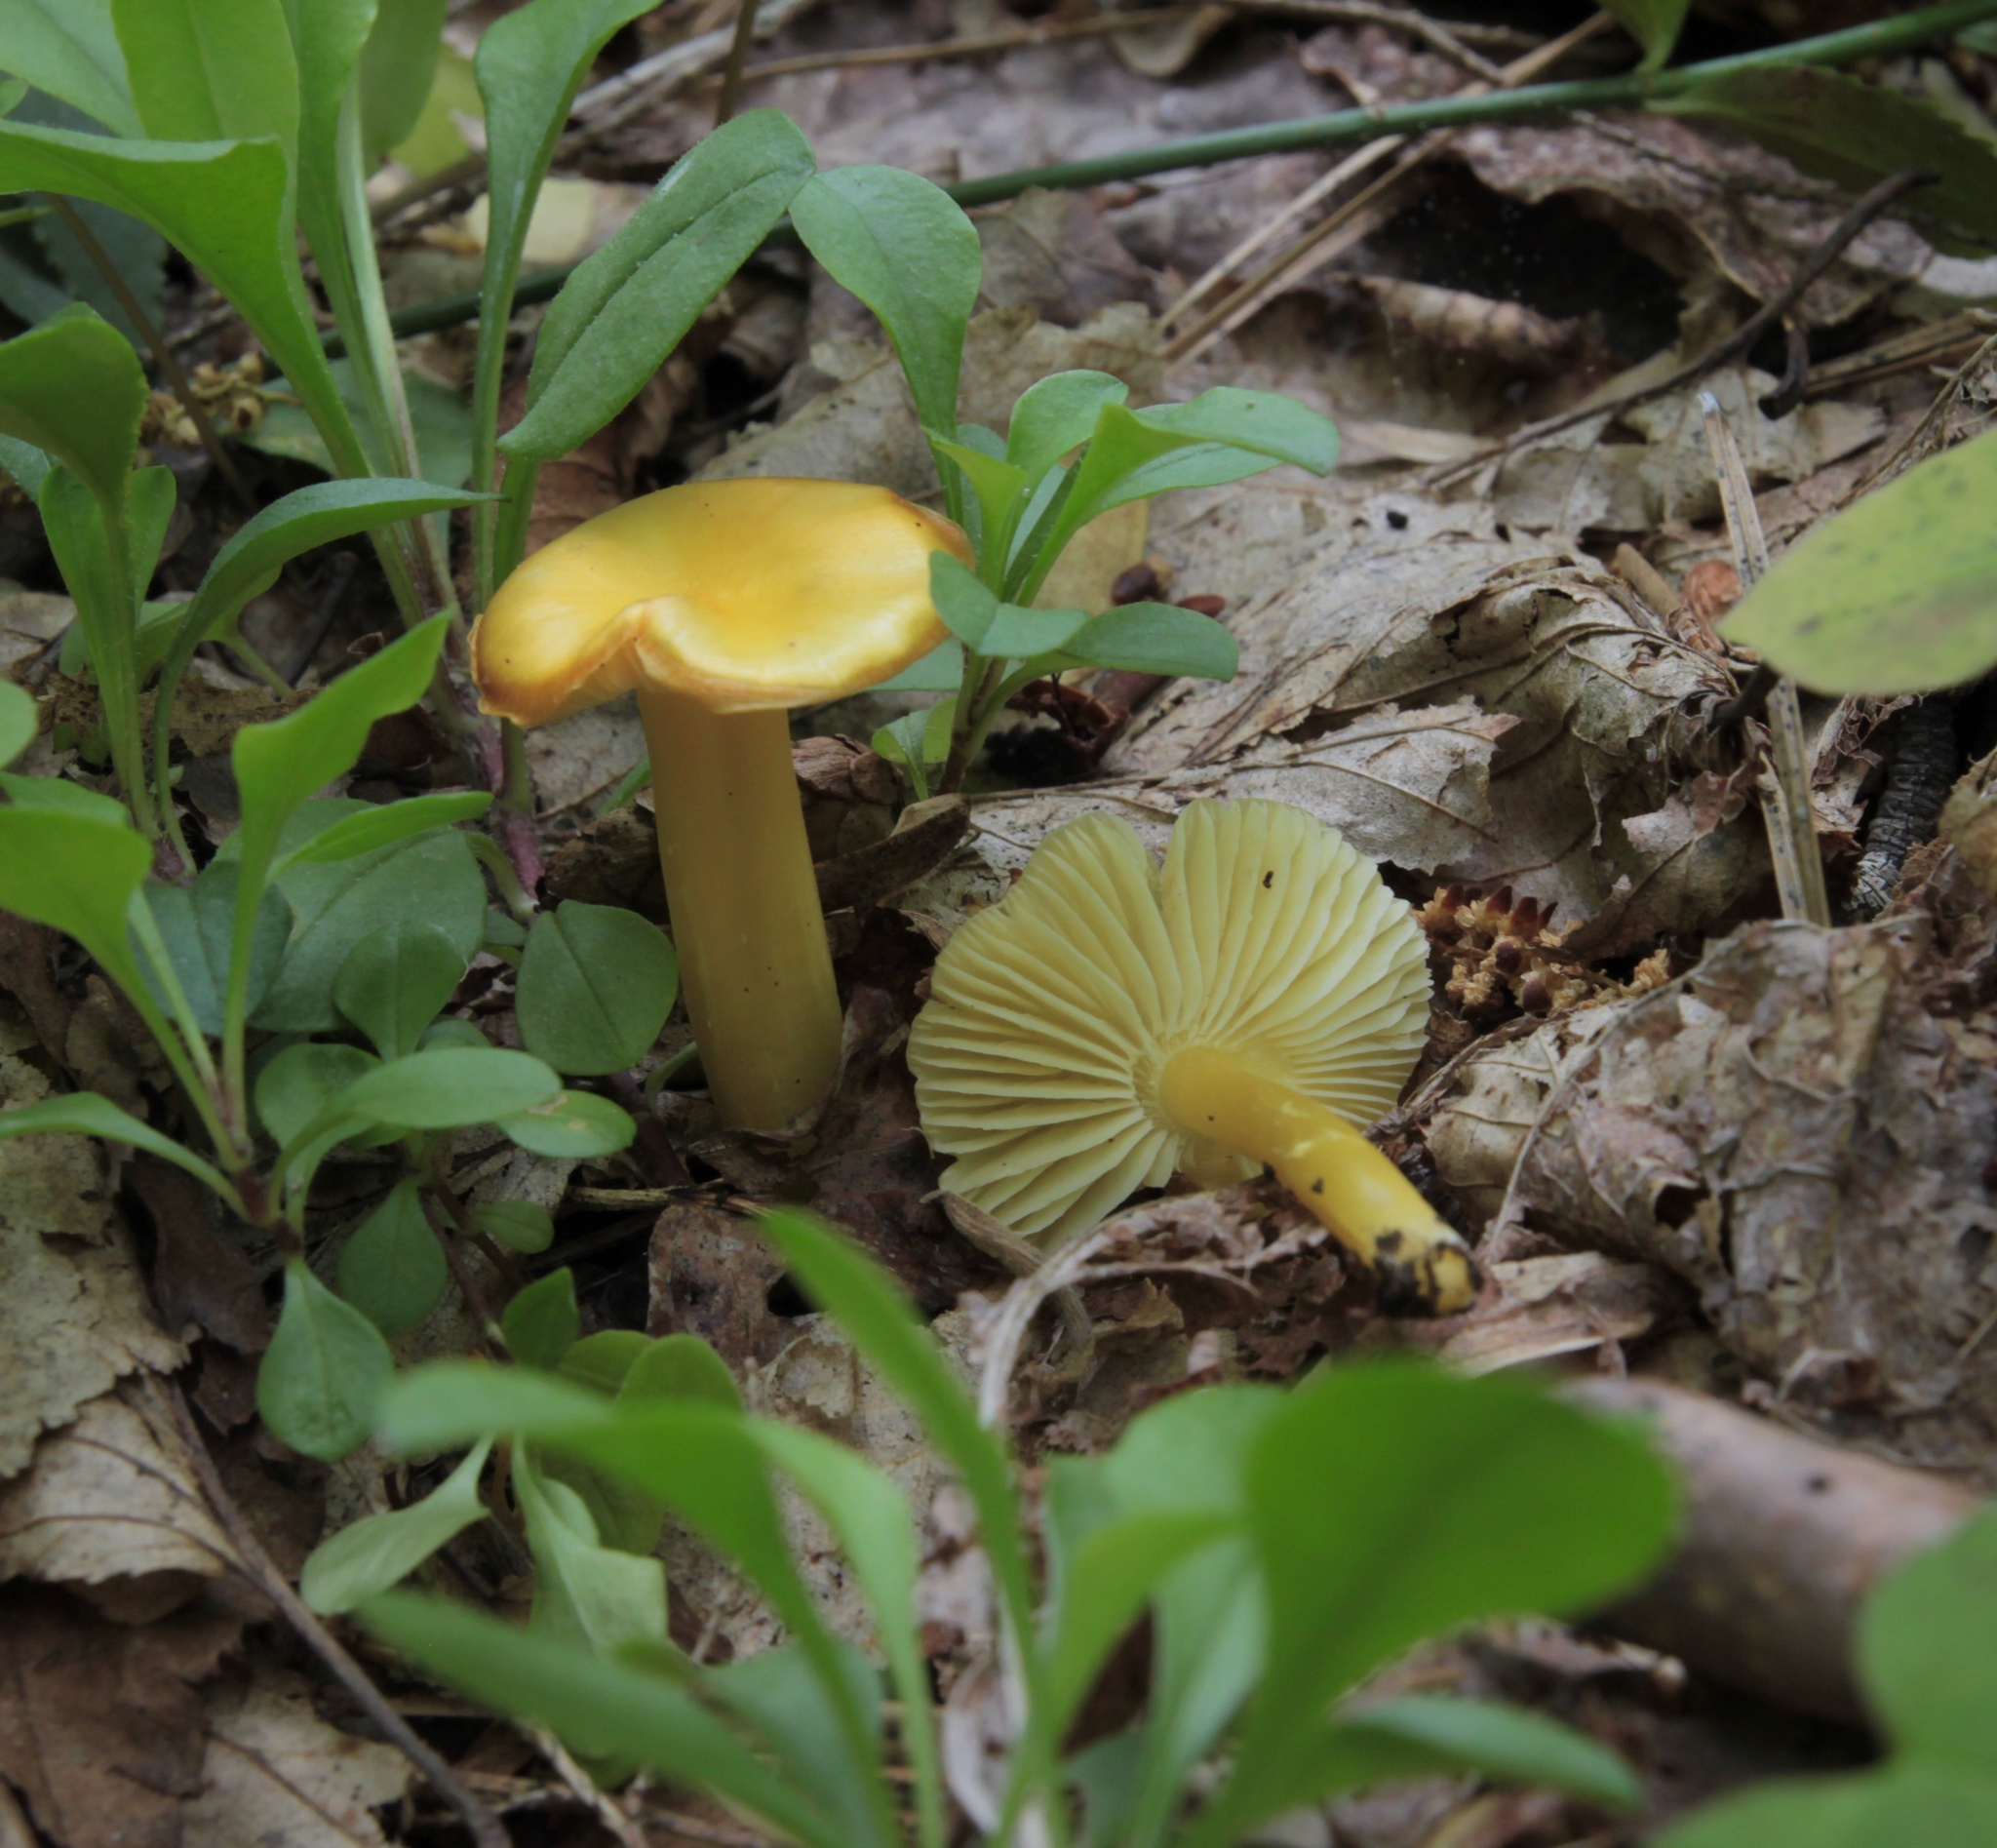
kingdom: Fungi
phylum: Basidiomycota
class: Agaricomycetes
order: Agaricales
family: Hygrophoraceae
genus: Hygrocybe
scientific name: Hygrocybe flavescens
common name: Golden waxy cap
